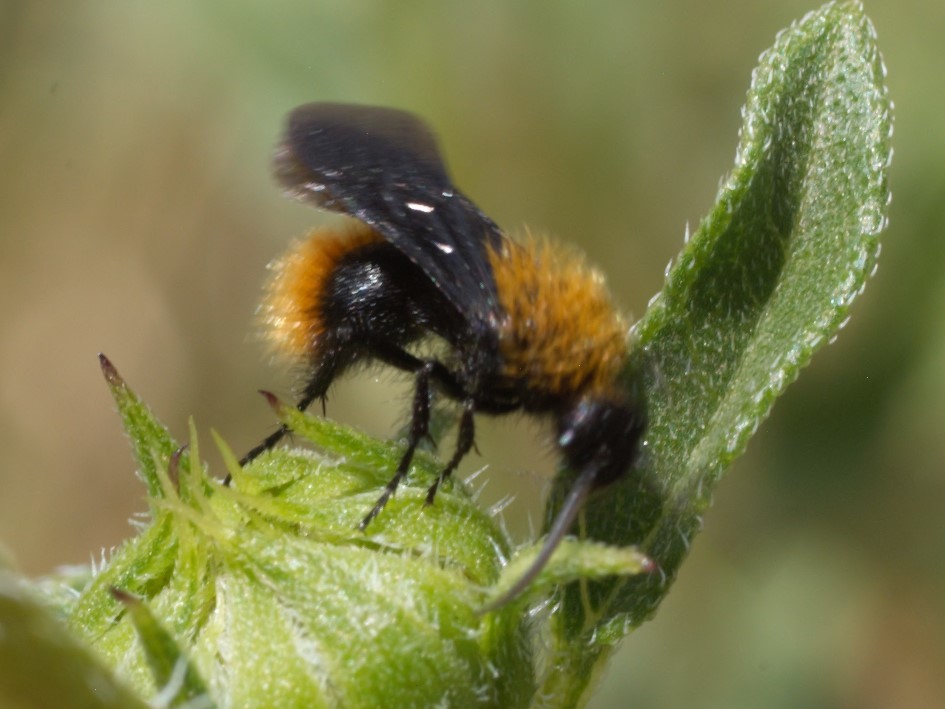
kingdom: Animalia
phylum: Arthropoda
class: Insecta
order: Hymenoptera
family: Mutillidae
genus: Dasymutilla
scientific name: Dasymutilla vestita
